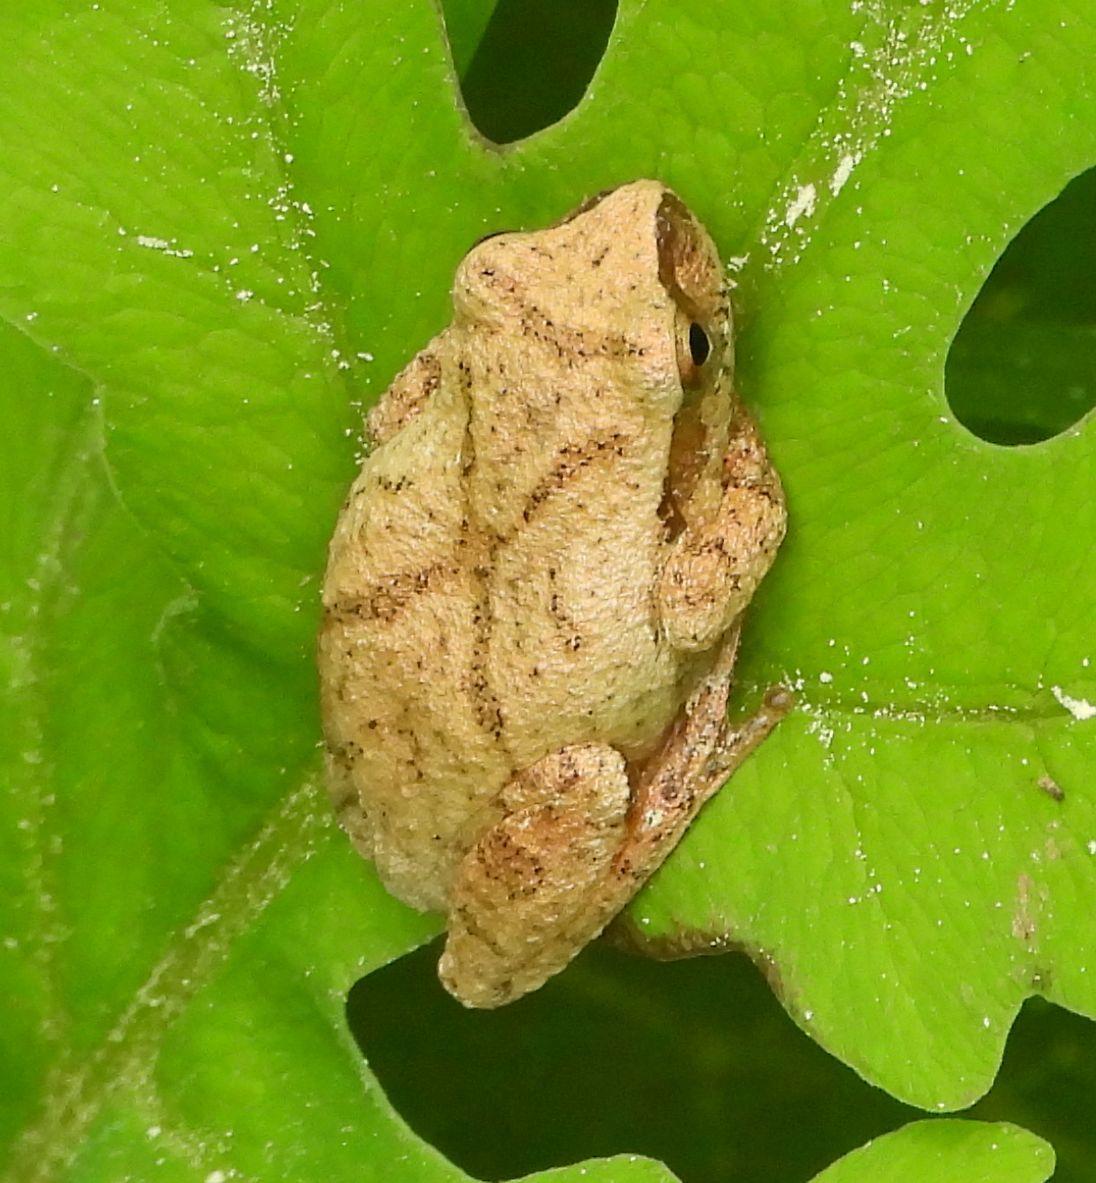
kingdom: Animalia
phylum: Chordata
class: Amphibia
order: Anura
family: Hylidae
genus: Pseudacris
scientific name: Pseudacris crucifer
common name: Spring peeper
